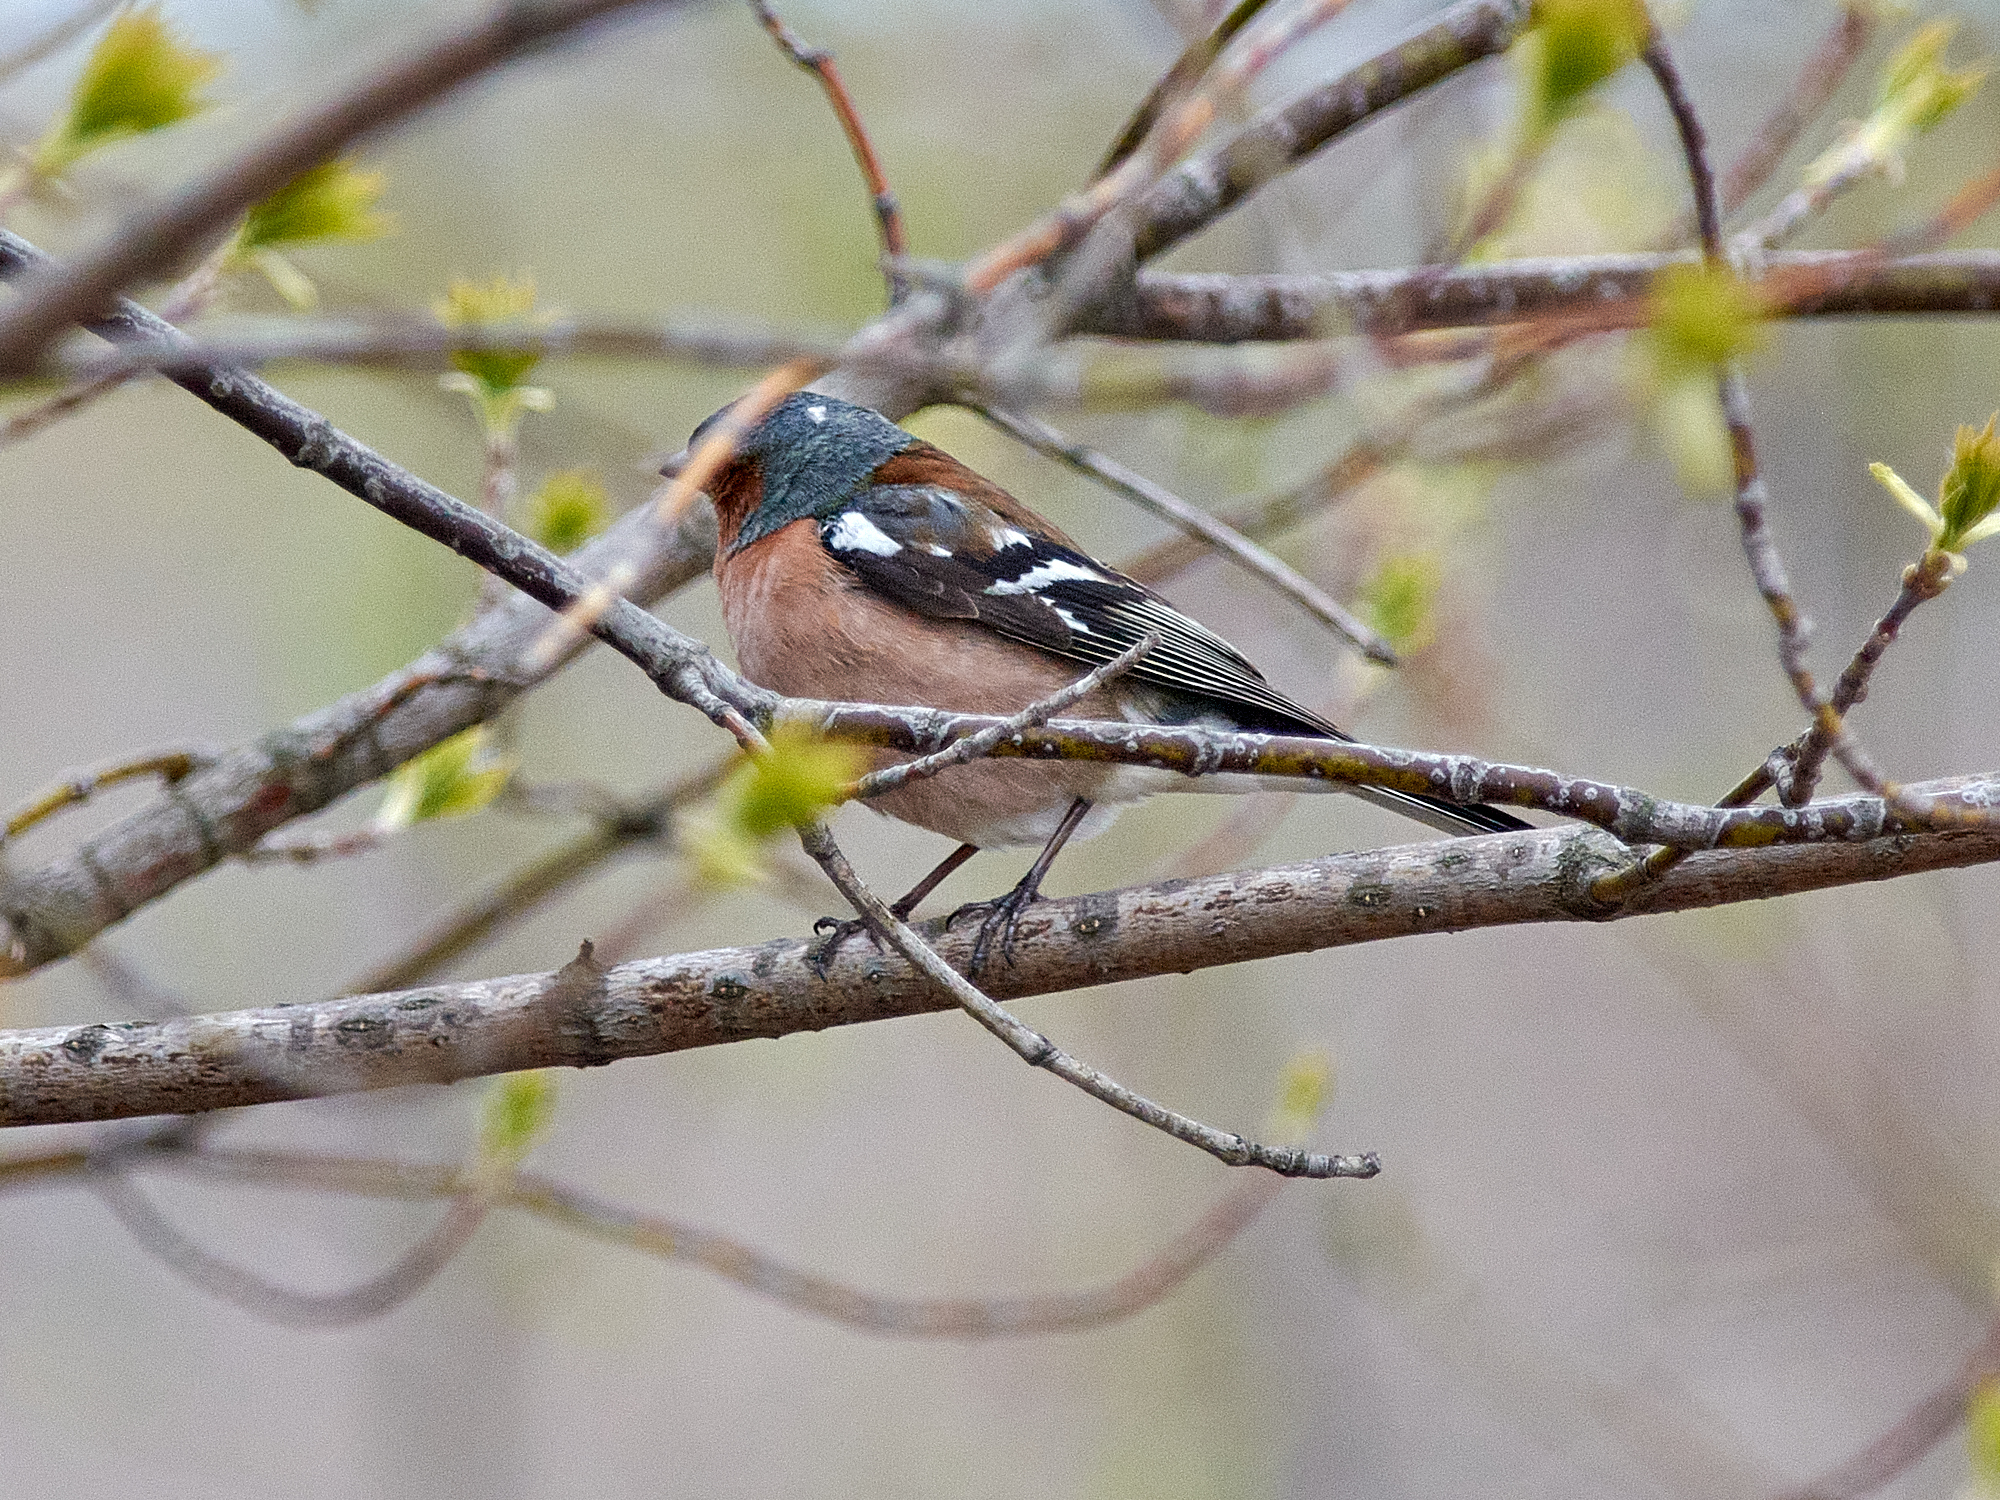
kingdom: Animalia
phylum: Chordata
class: Aves
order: Passeriformes
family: Fringillidae
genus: Fringilla
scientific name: Fringilla coelebs
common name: Common chaffinch
